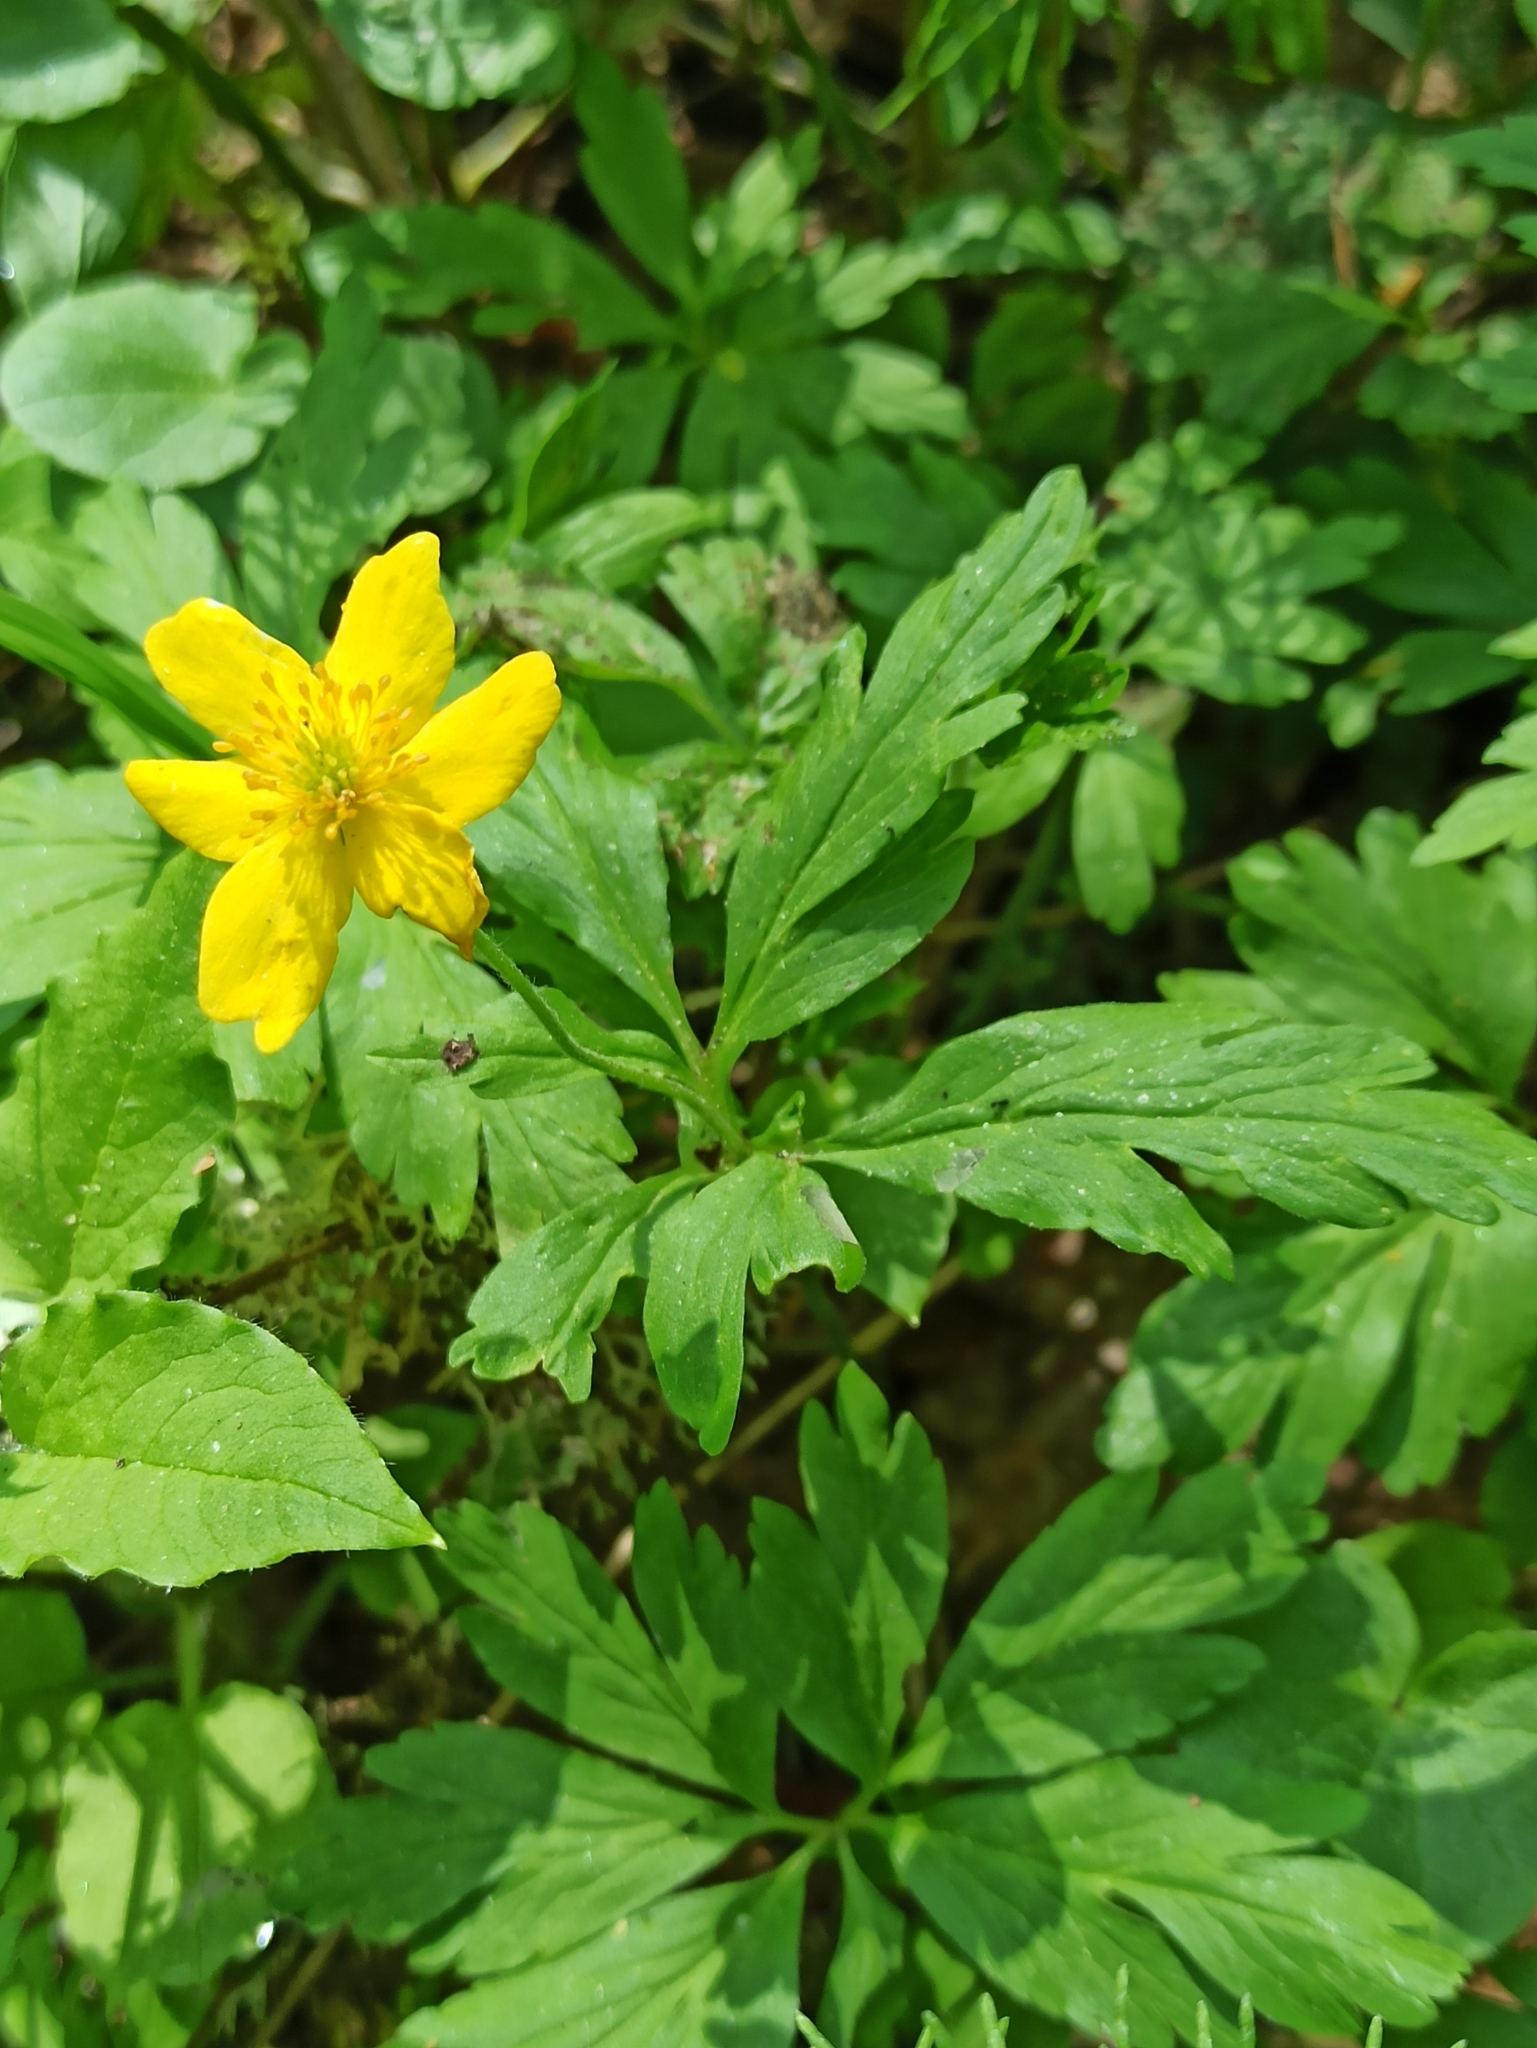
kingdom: Plantae
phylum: Tracheophyta
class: Magnoliopsida
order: Ranunculales
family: Ranunculaceae
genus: Anemone
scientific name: Anemone ranunculoides
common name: Yellow anemone
